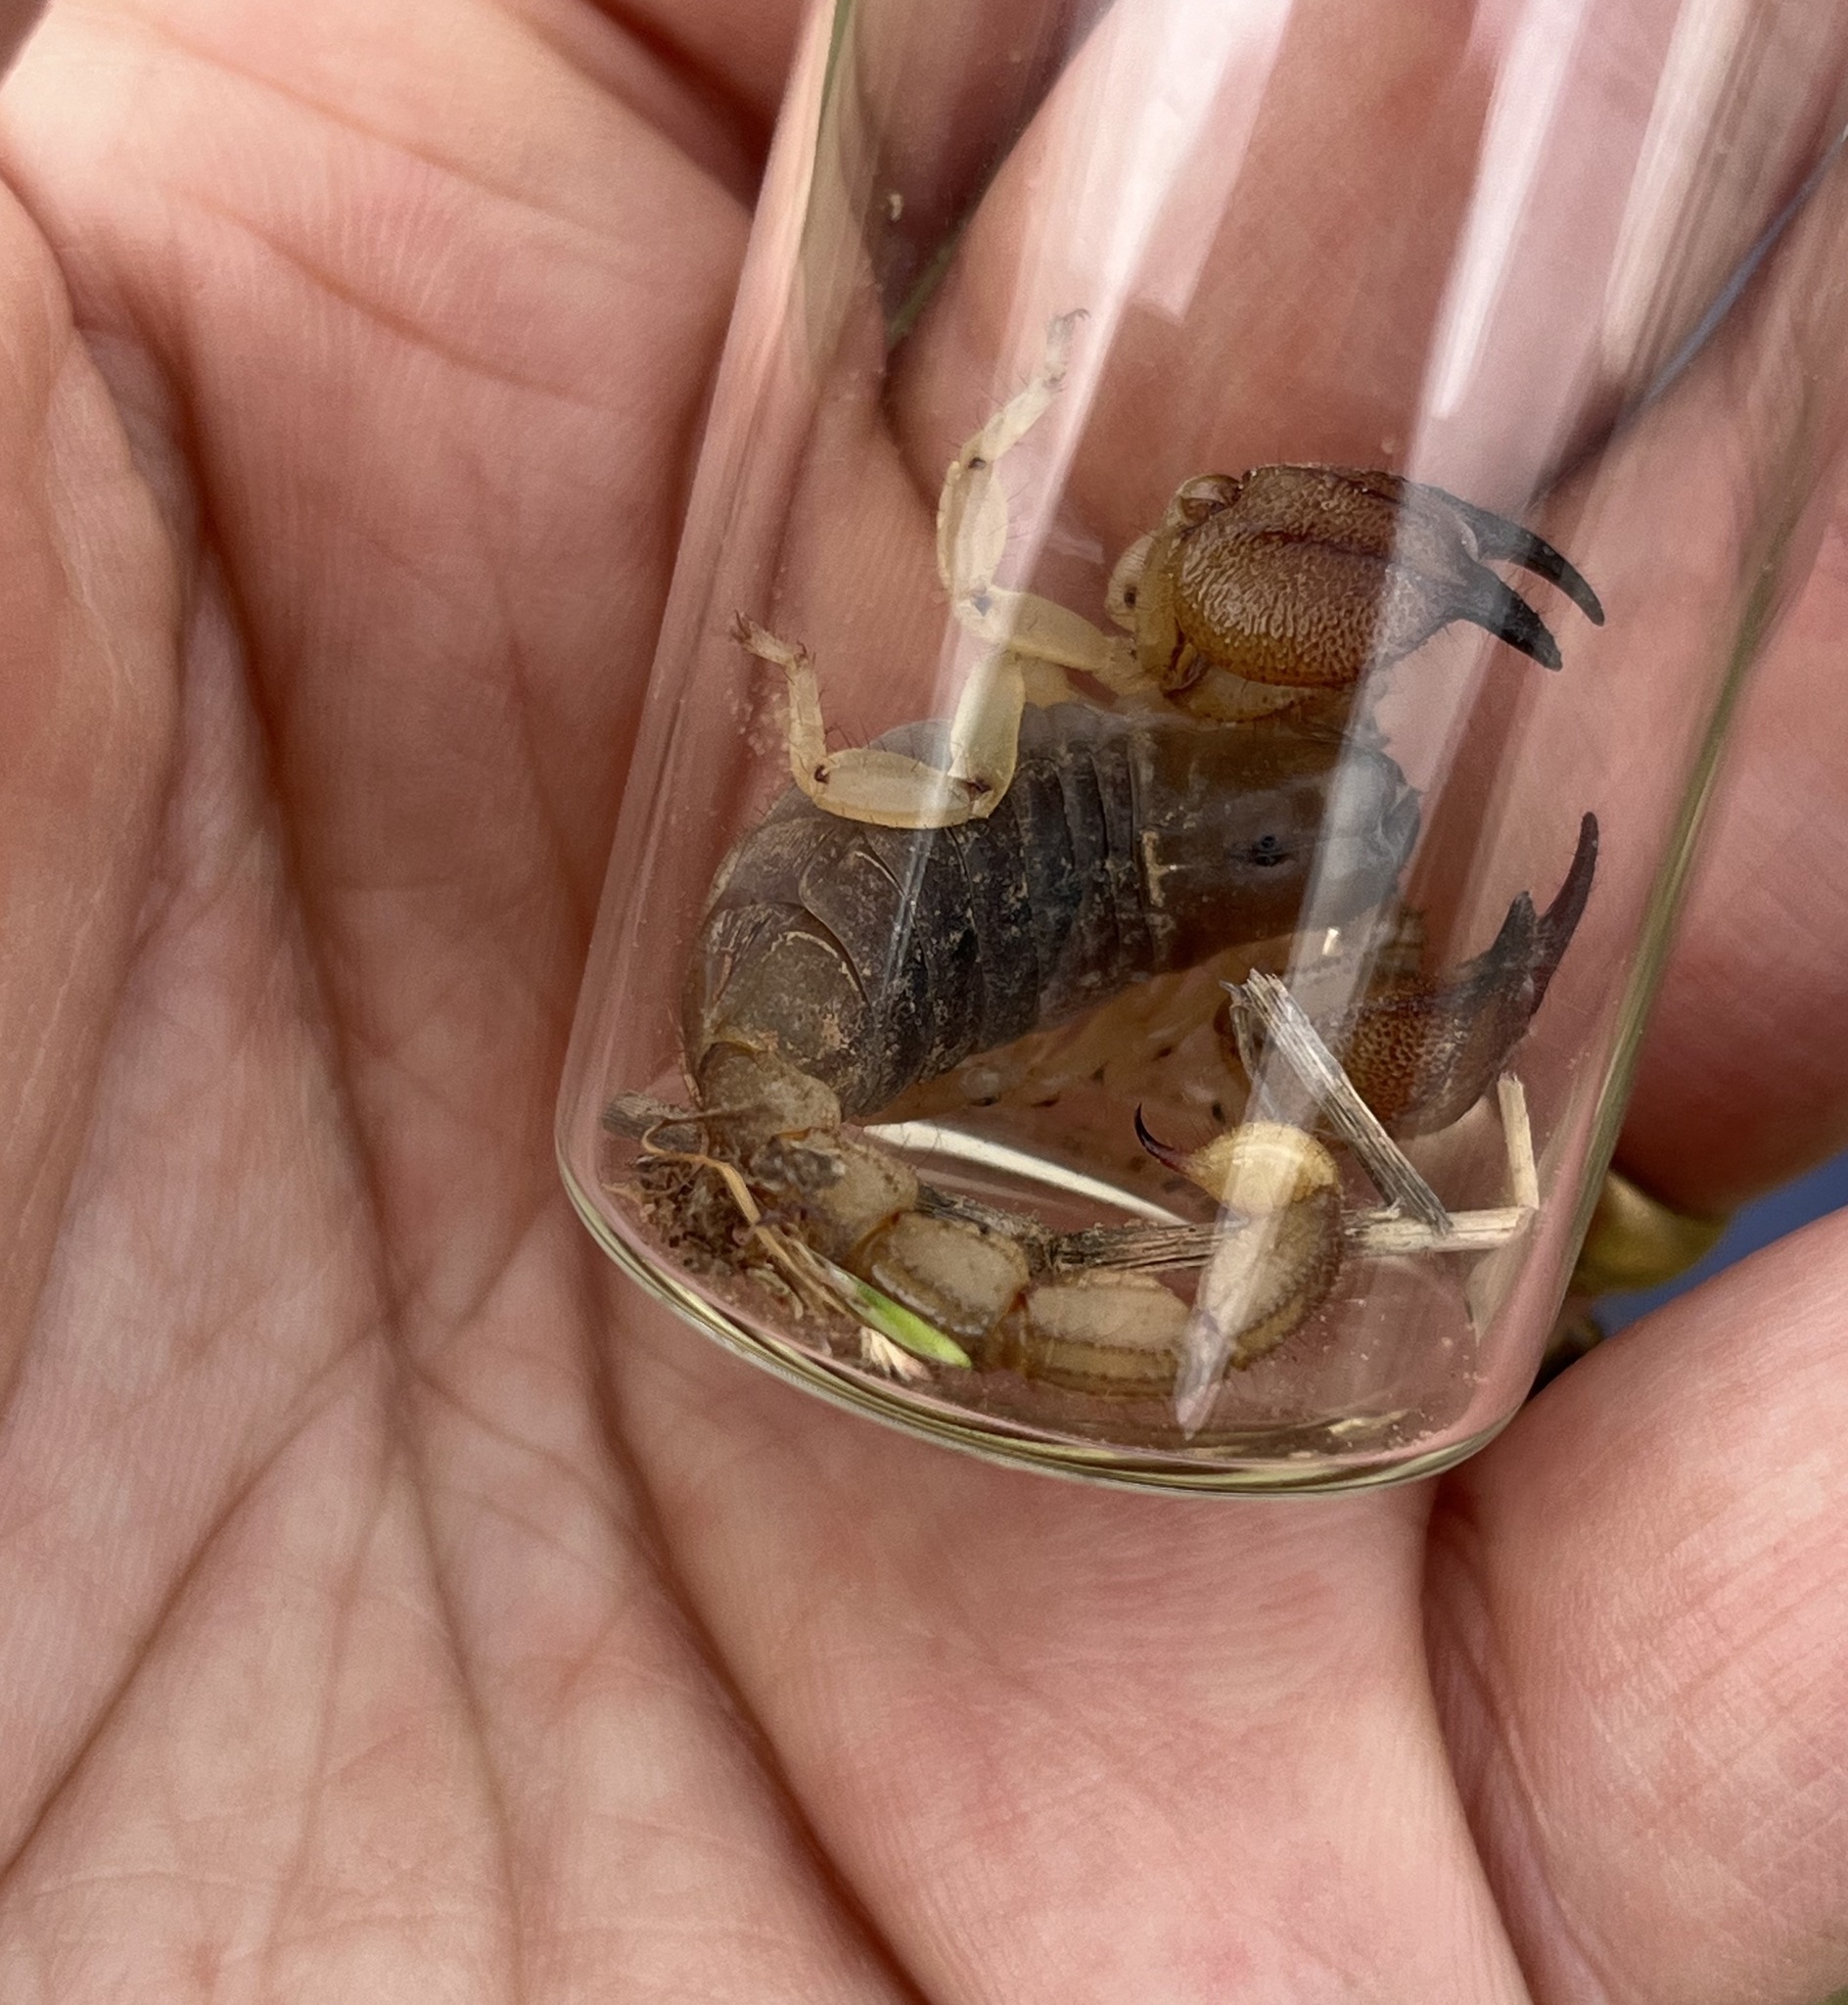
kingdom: Animalia
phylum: Arthropoda
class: Arachnida
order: Scorpiones
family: Scorpionidae
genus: Scorpio
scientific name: Scorpio kruglovi
